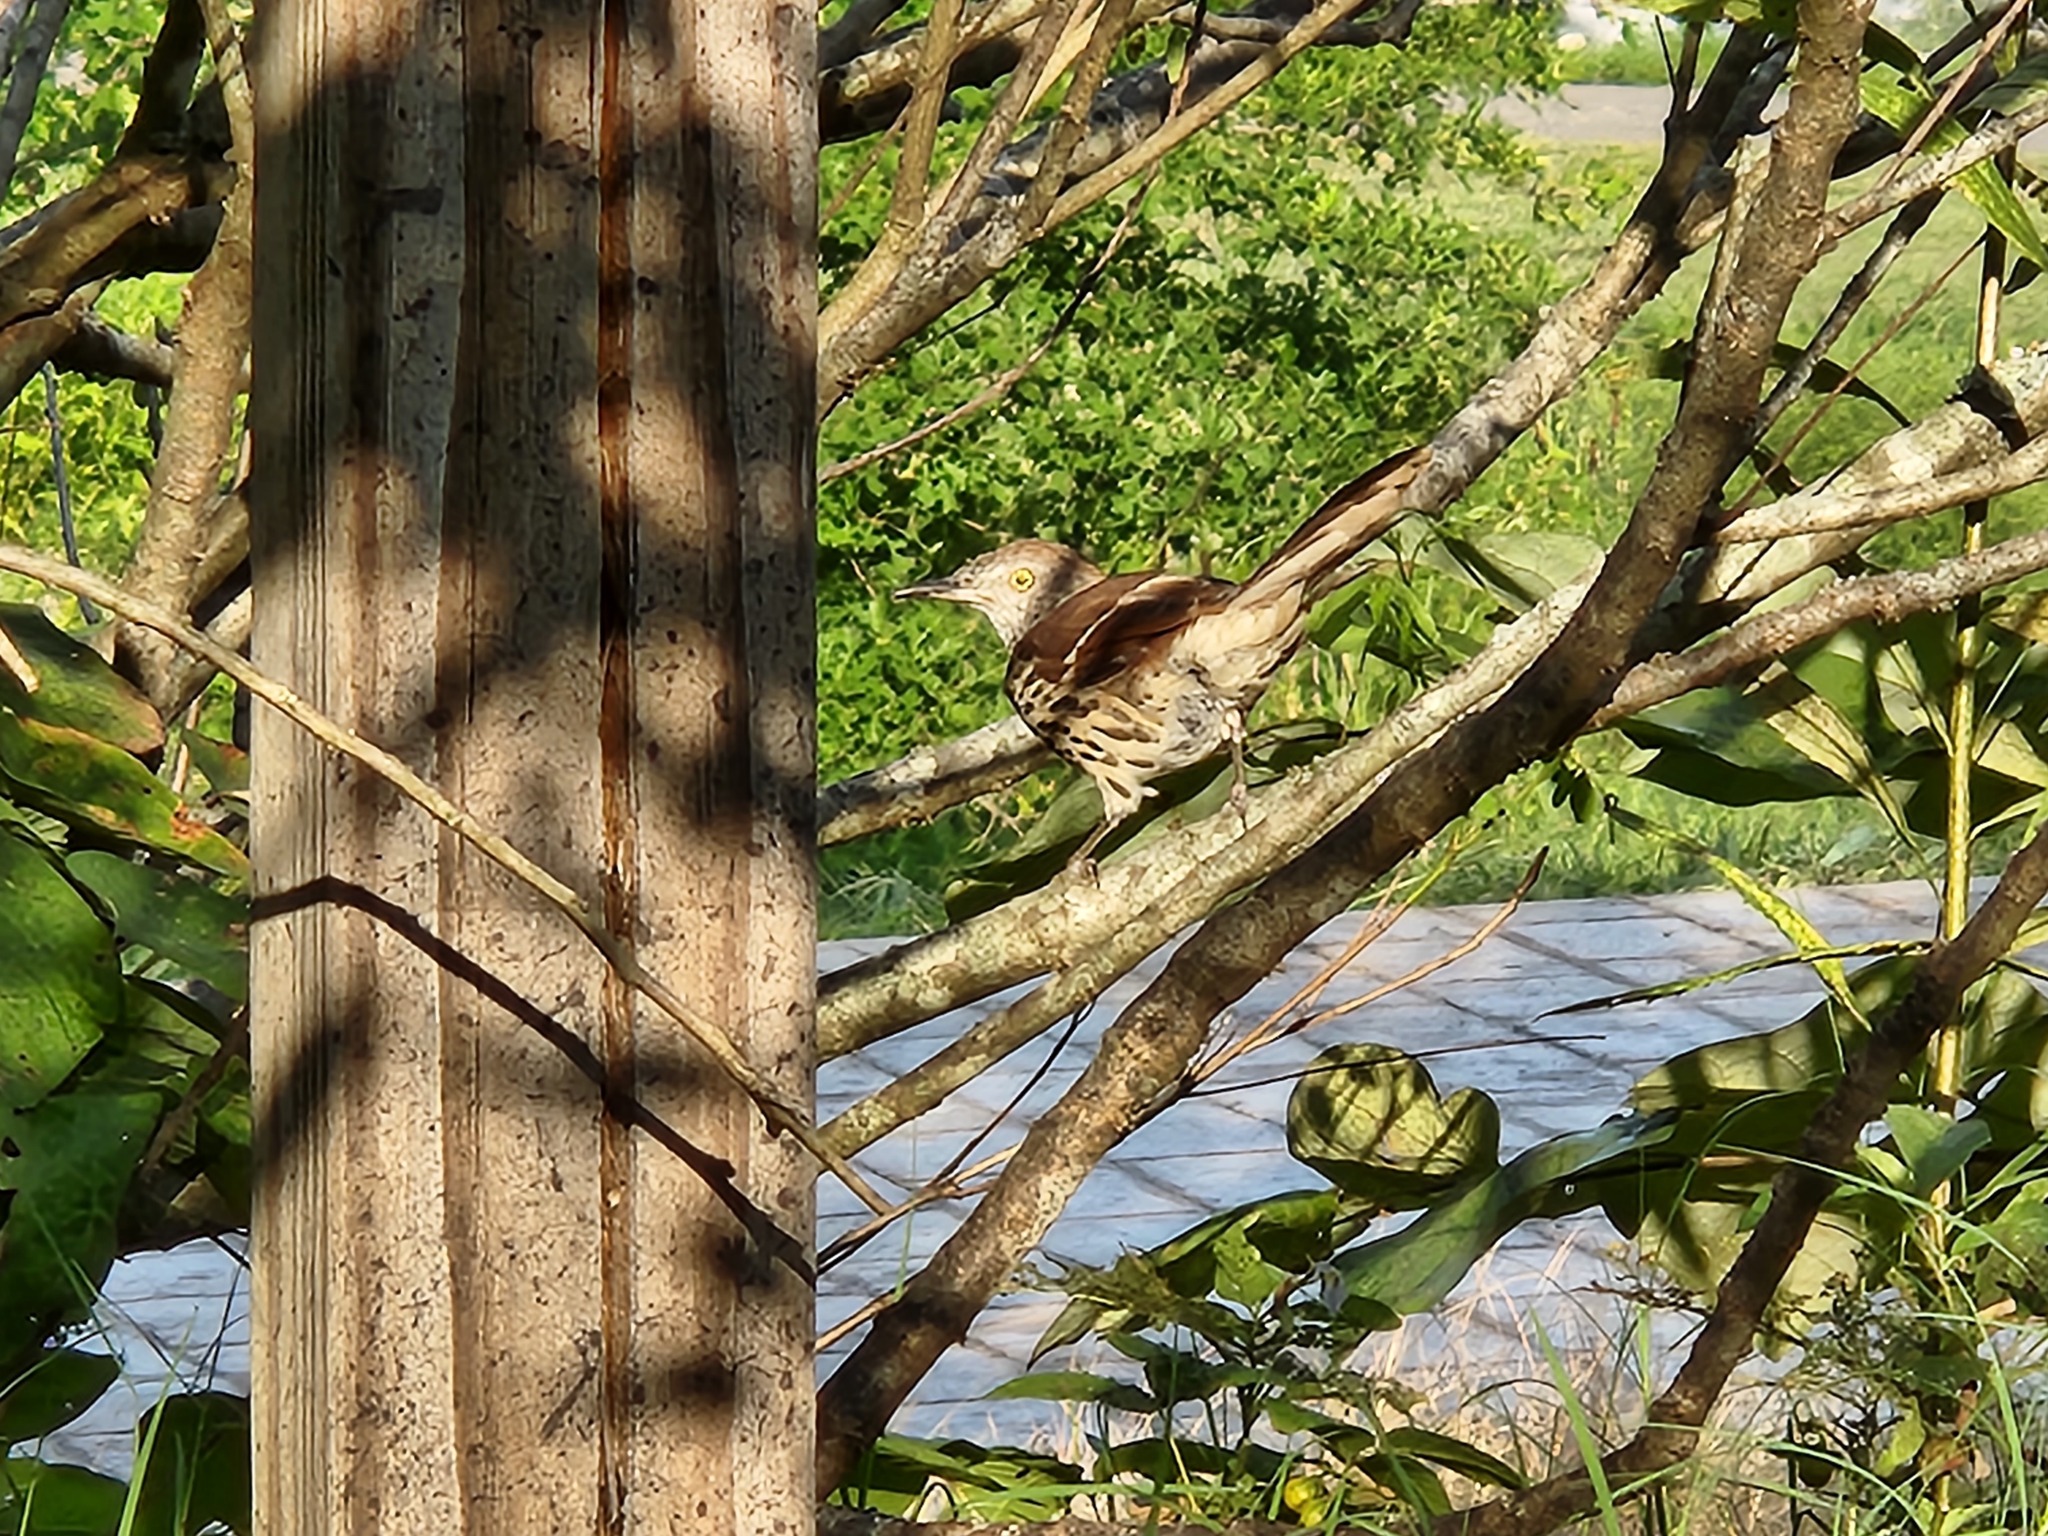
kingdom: Animalia
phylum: Chordata
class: Aves
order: Passeriformes
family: Mimidae
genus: Toxostoma
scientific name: Toxostoma rufum
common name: Brown thrasher
